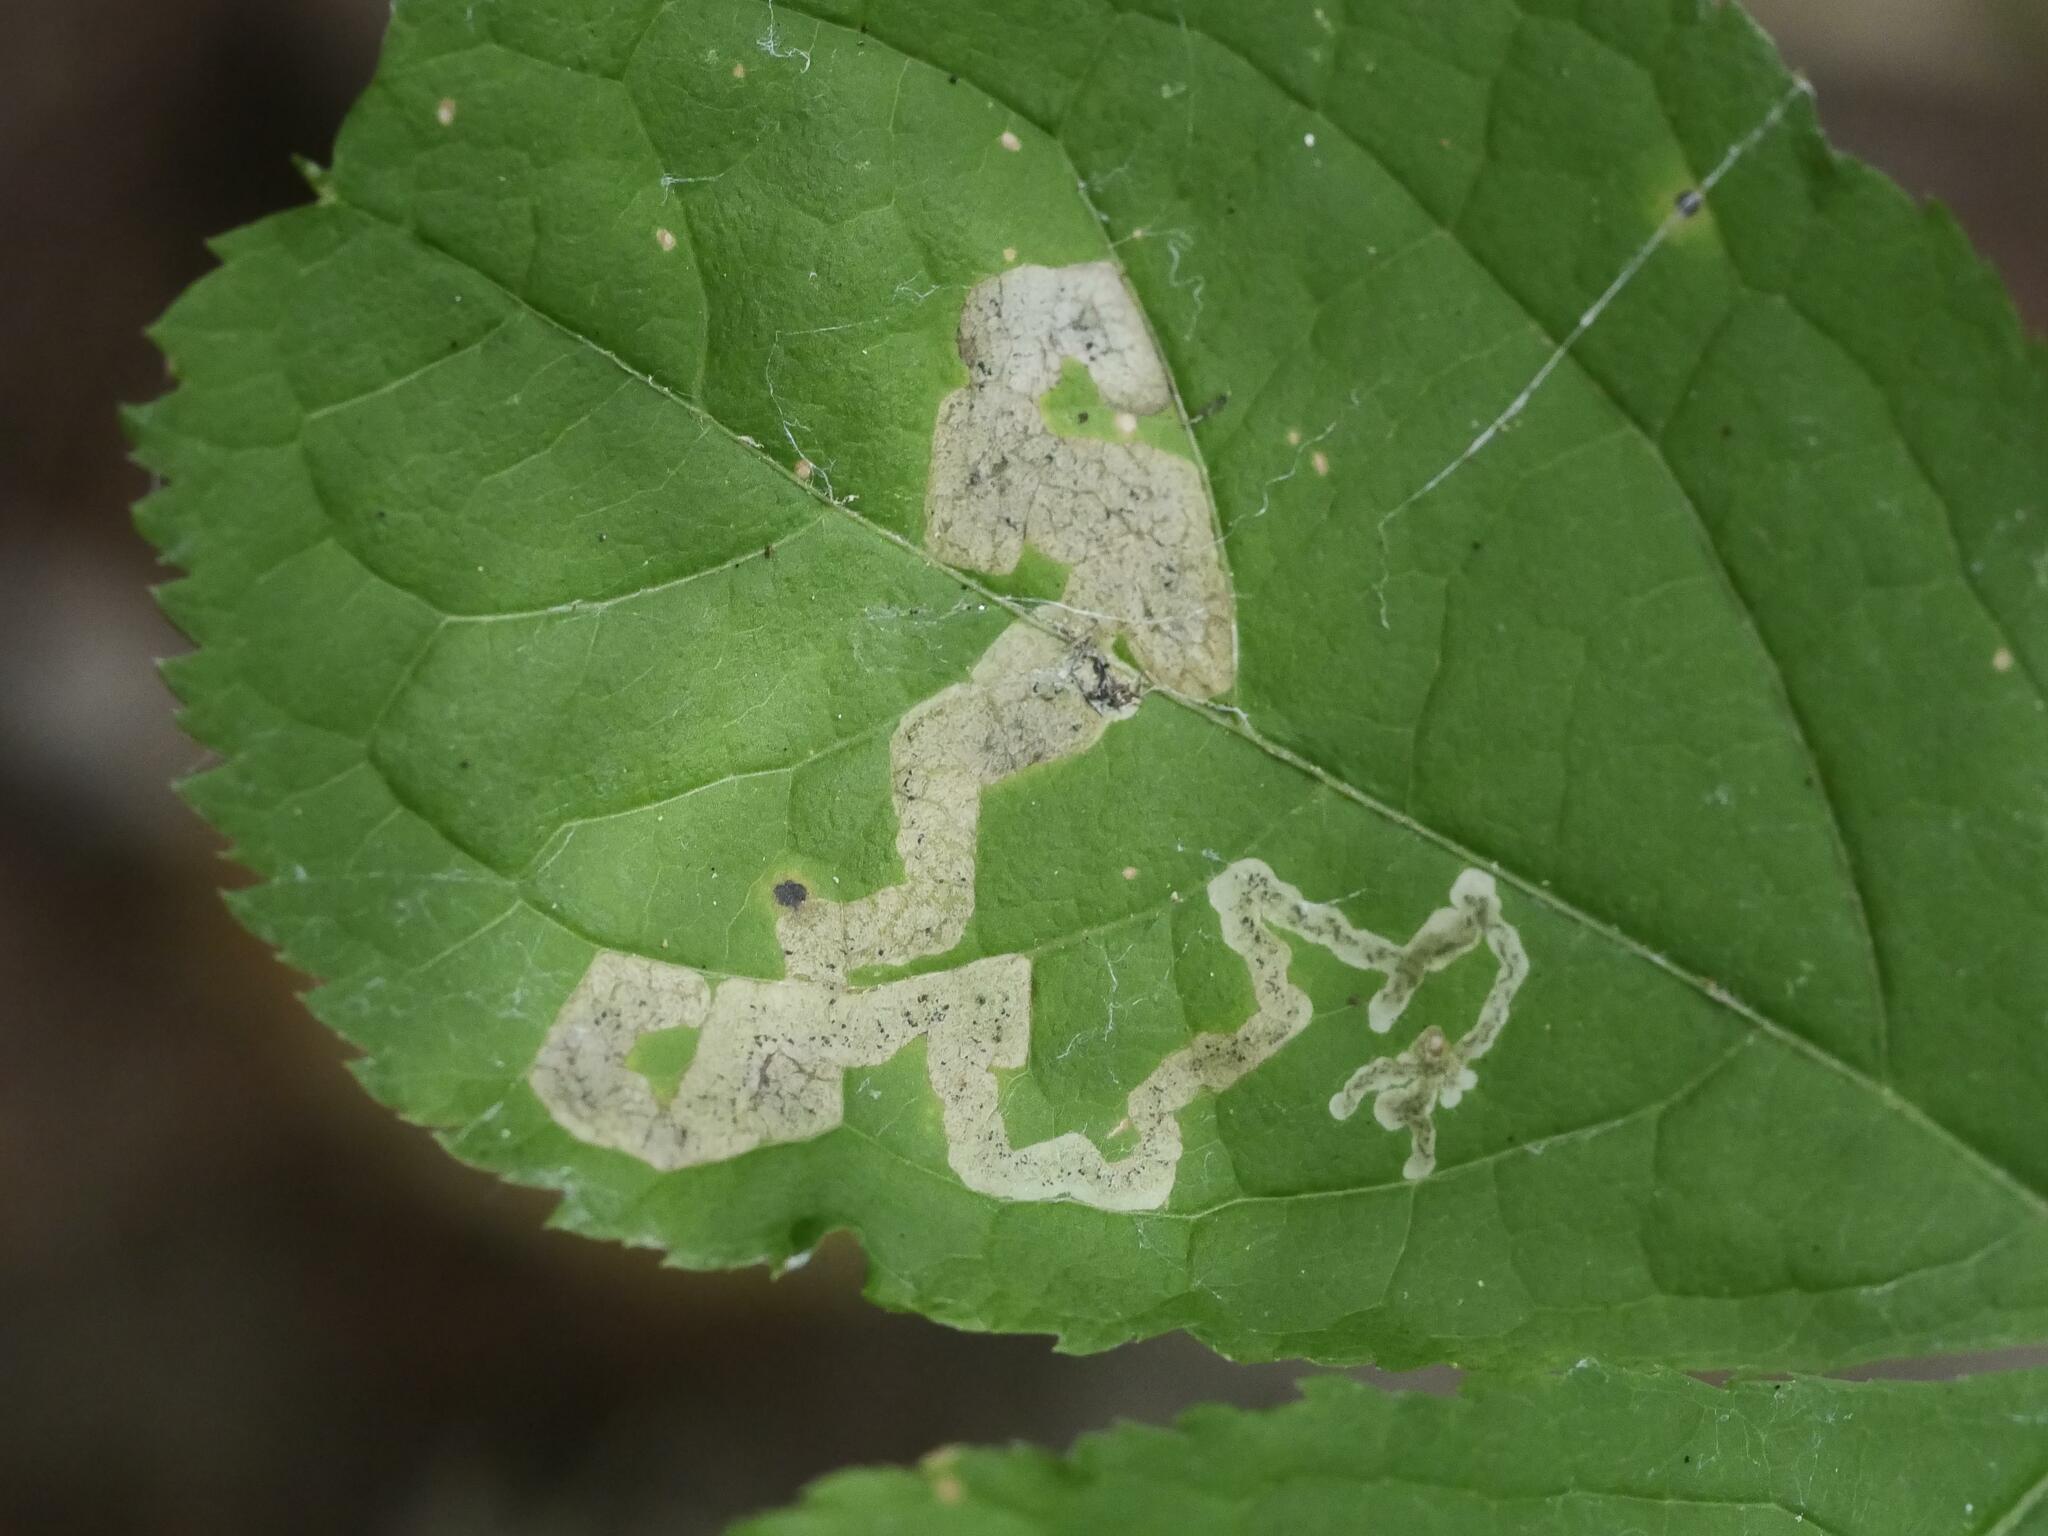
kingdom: Animalia
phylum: Arthropoda
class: Insecta
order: Diptera
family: Agromyzidae
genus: Phytomyza
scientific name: Phytomyza aralivora
